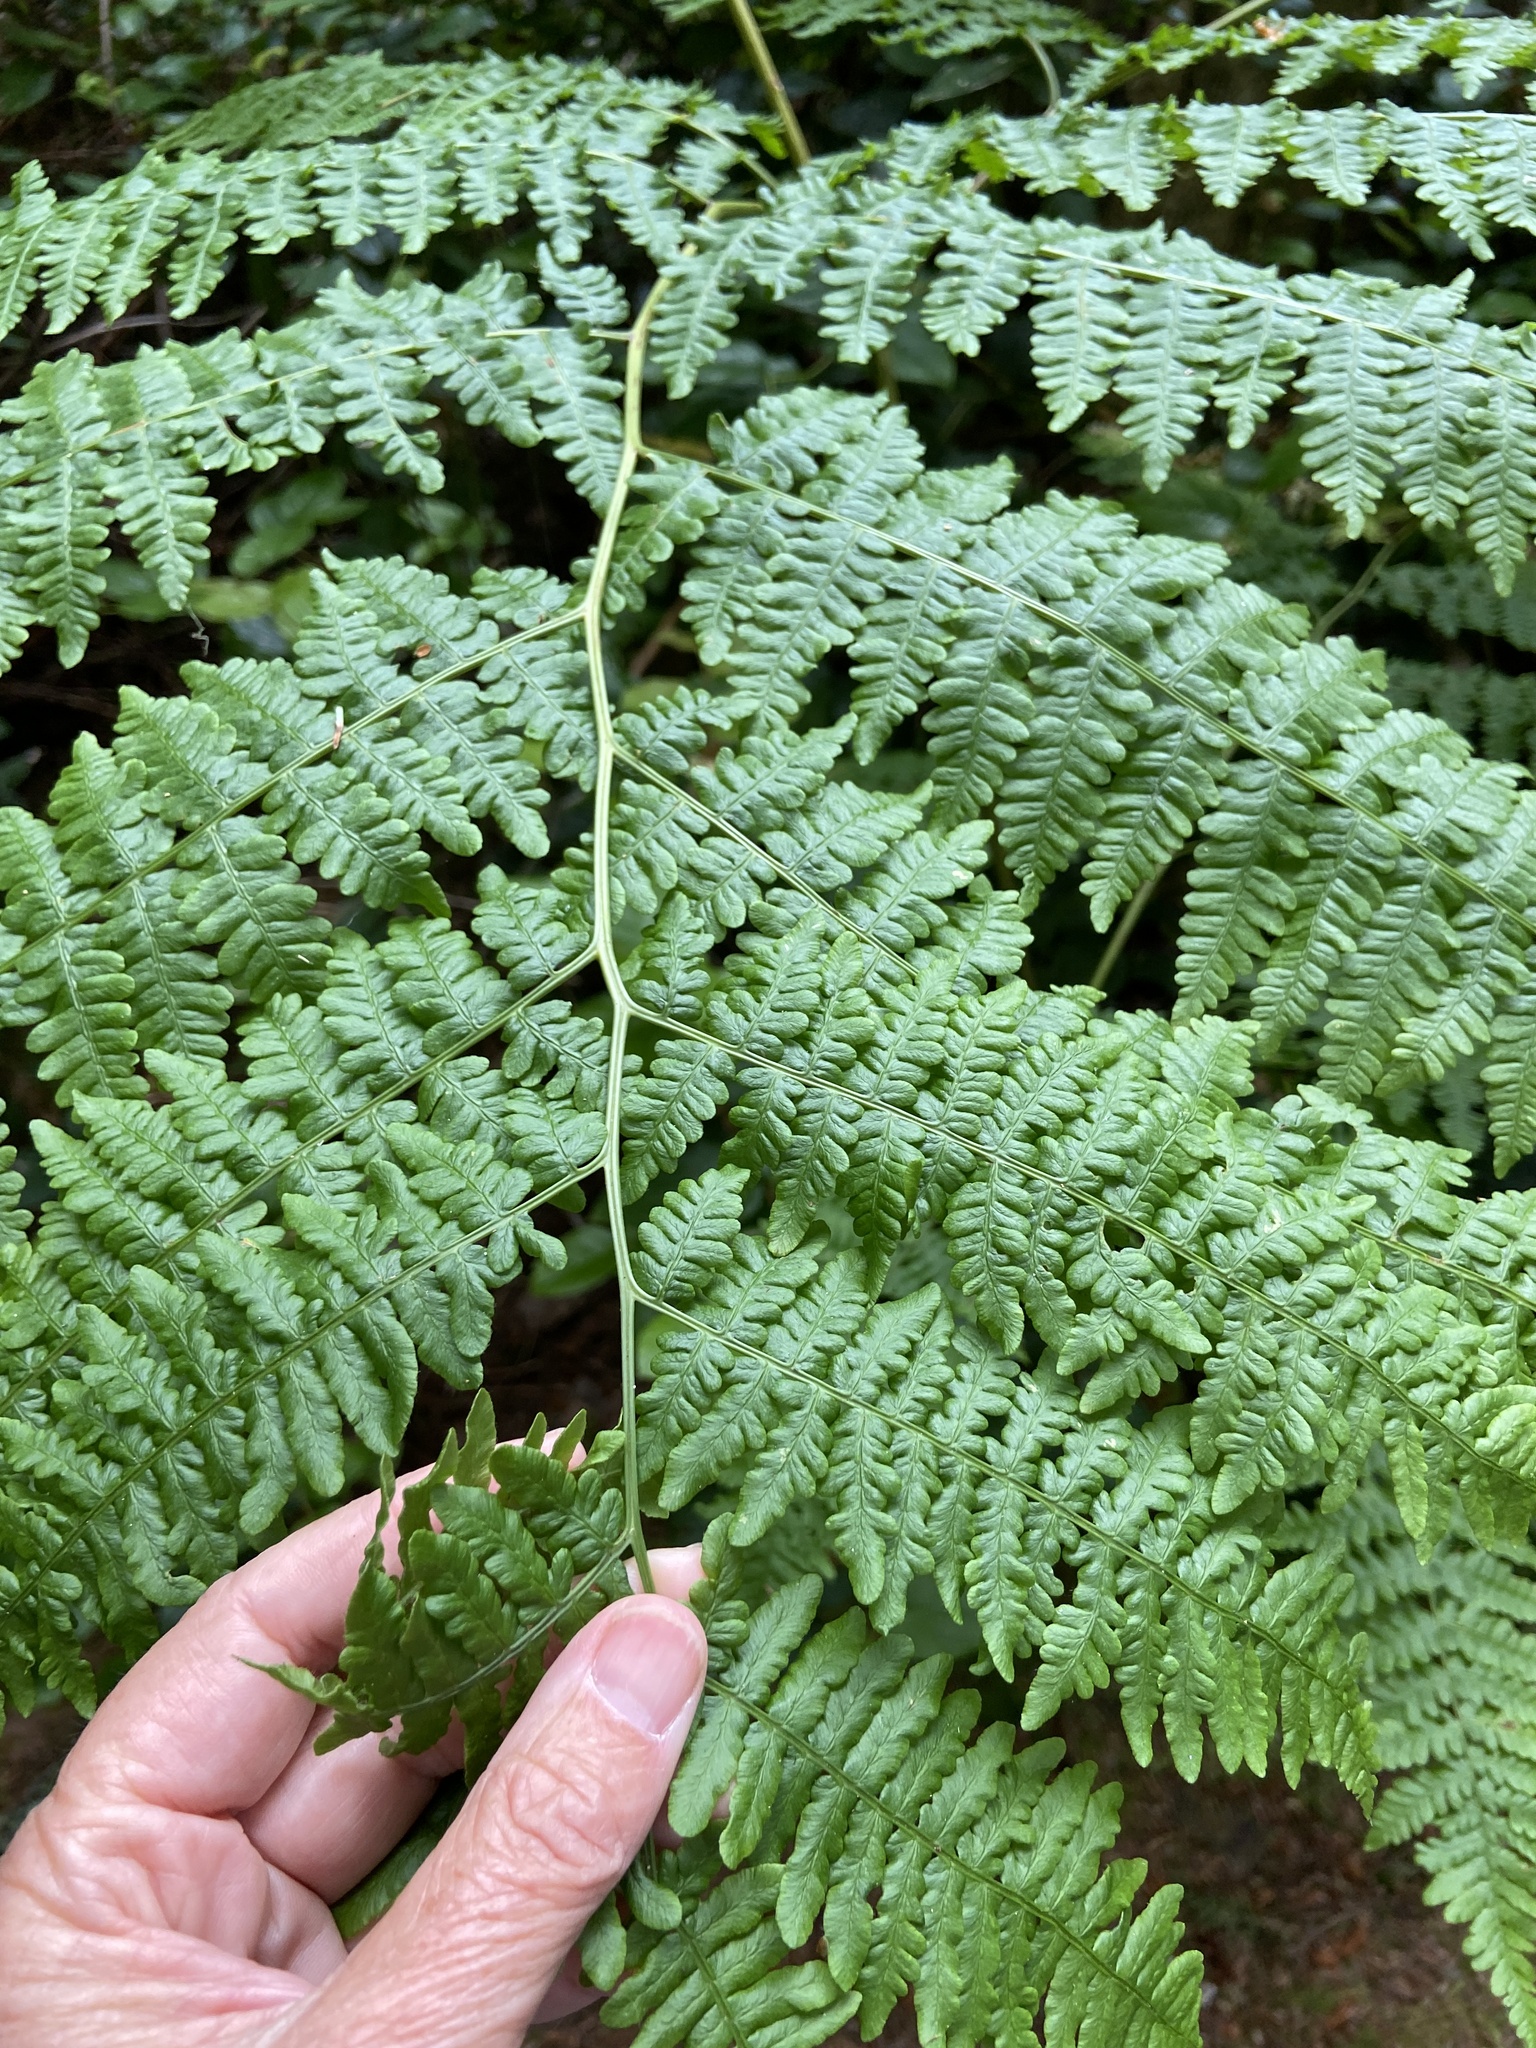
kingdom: Plantae
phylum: Tracheophyta
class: Polypodiopsida
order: Polypodiales
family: Dennstaedtiaceae
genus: Pteridium
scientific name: Pteridium aquilinum
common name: Bracken
